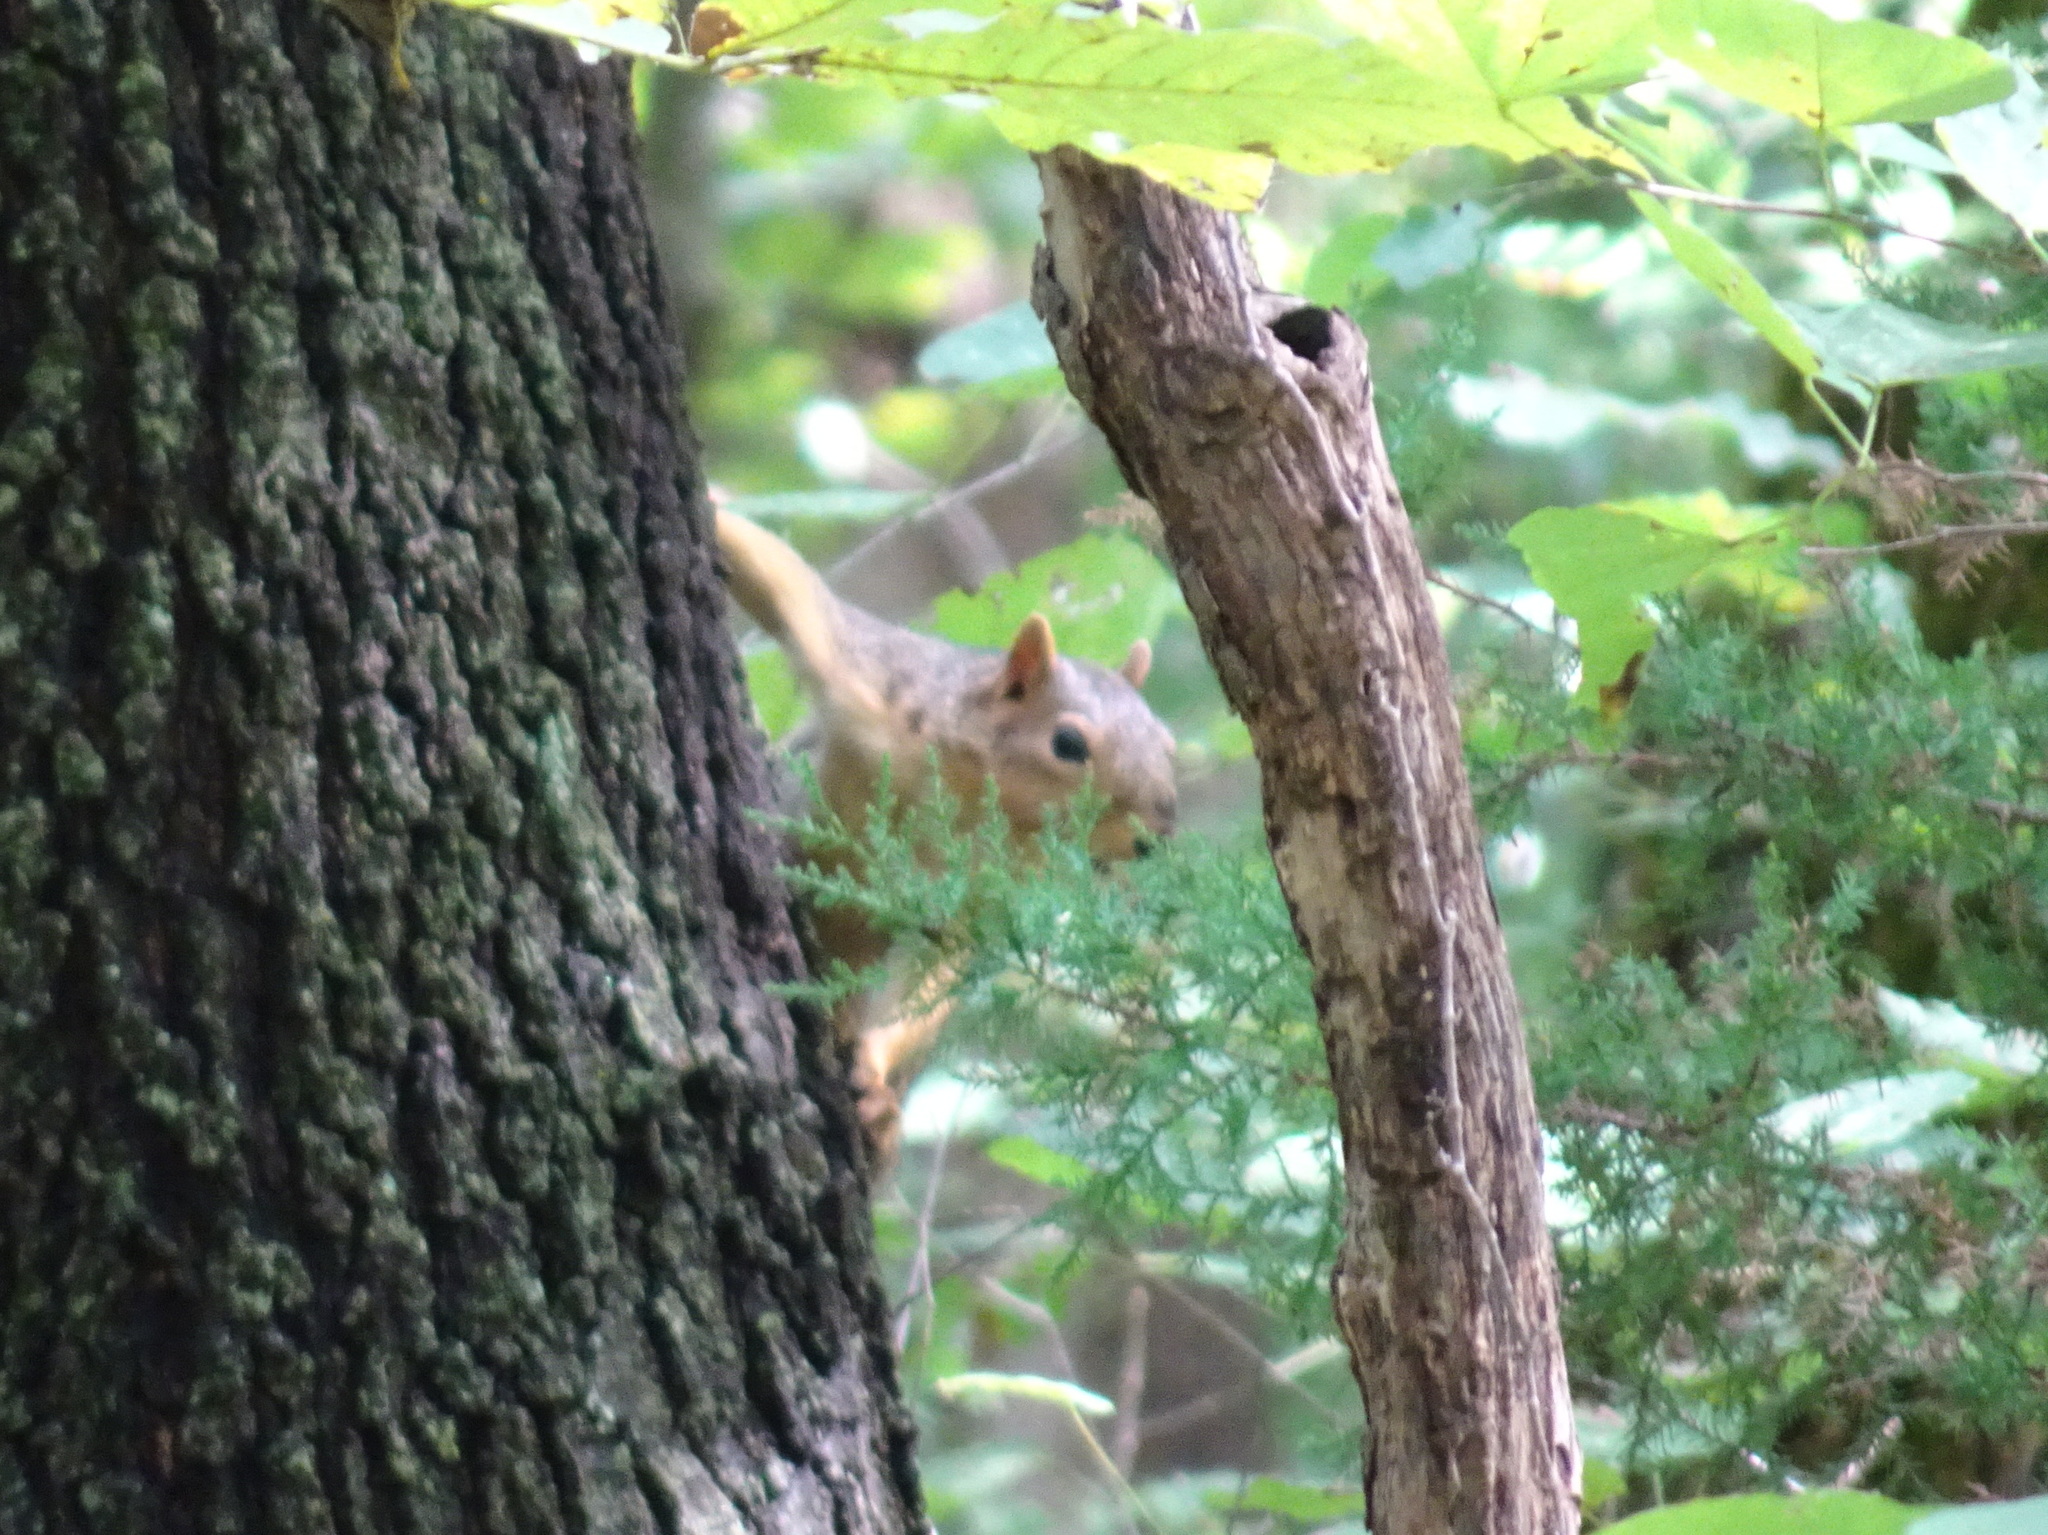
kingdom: Animalia
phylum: Chordata
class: Mammalia
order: Rodentia
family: Sciuridae
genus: Sciurus
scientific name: Sciurus niger
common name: Fox squirrel
